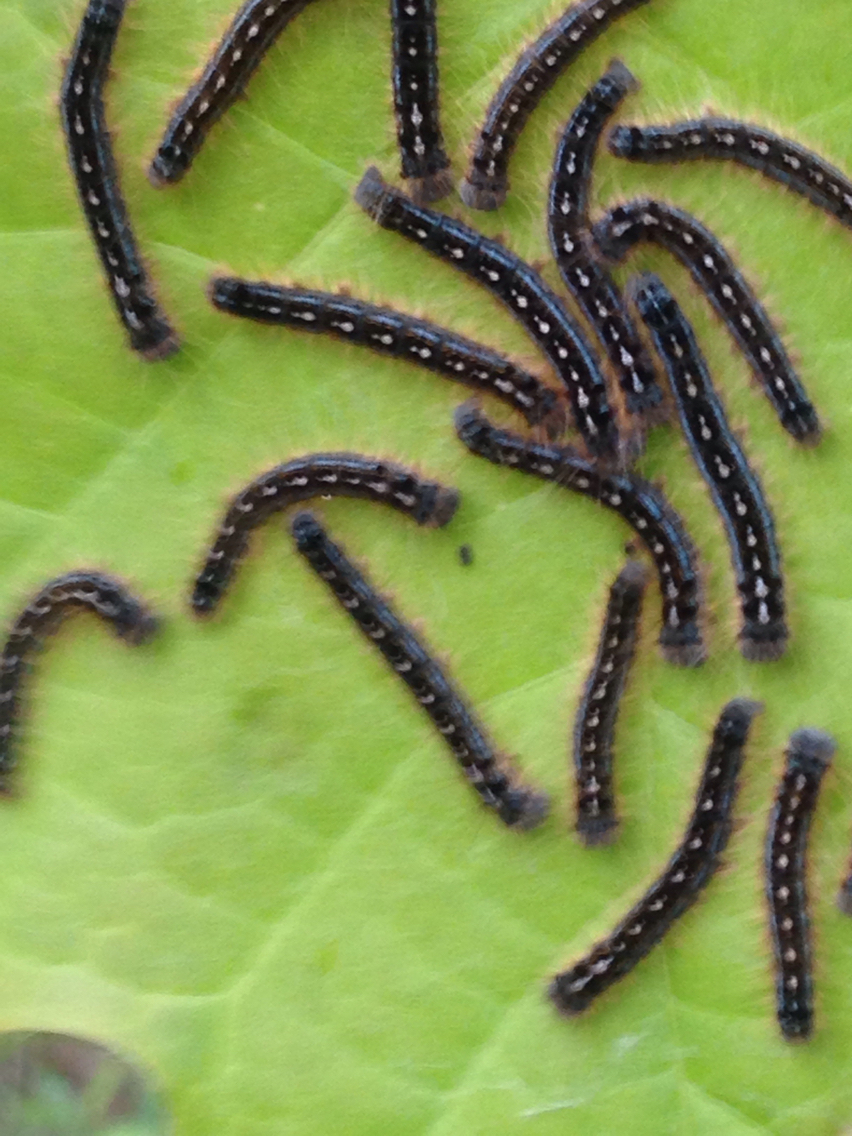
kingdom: Animalia
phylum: Arthropoda
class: Insecta
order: Lepidoptera
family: Lasiocampidae
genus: Malacosoma
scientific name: Malacosoma disstria
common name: Forest tent caterpillar
